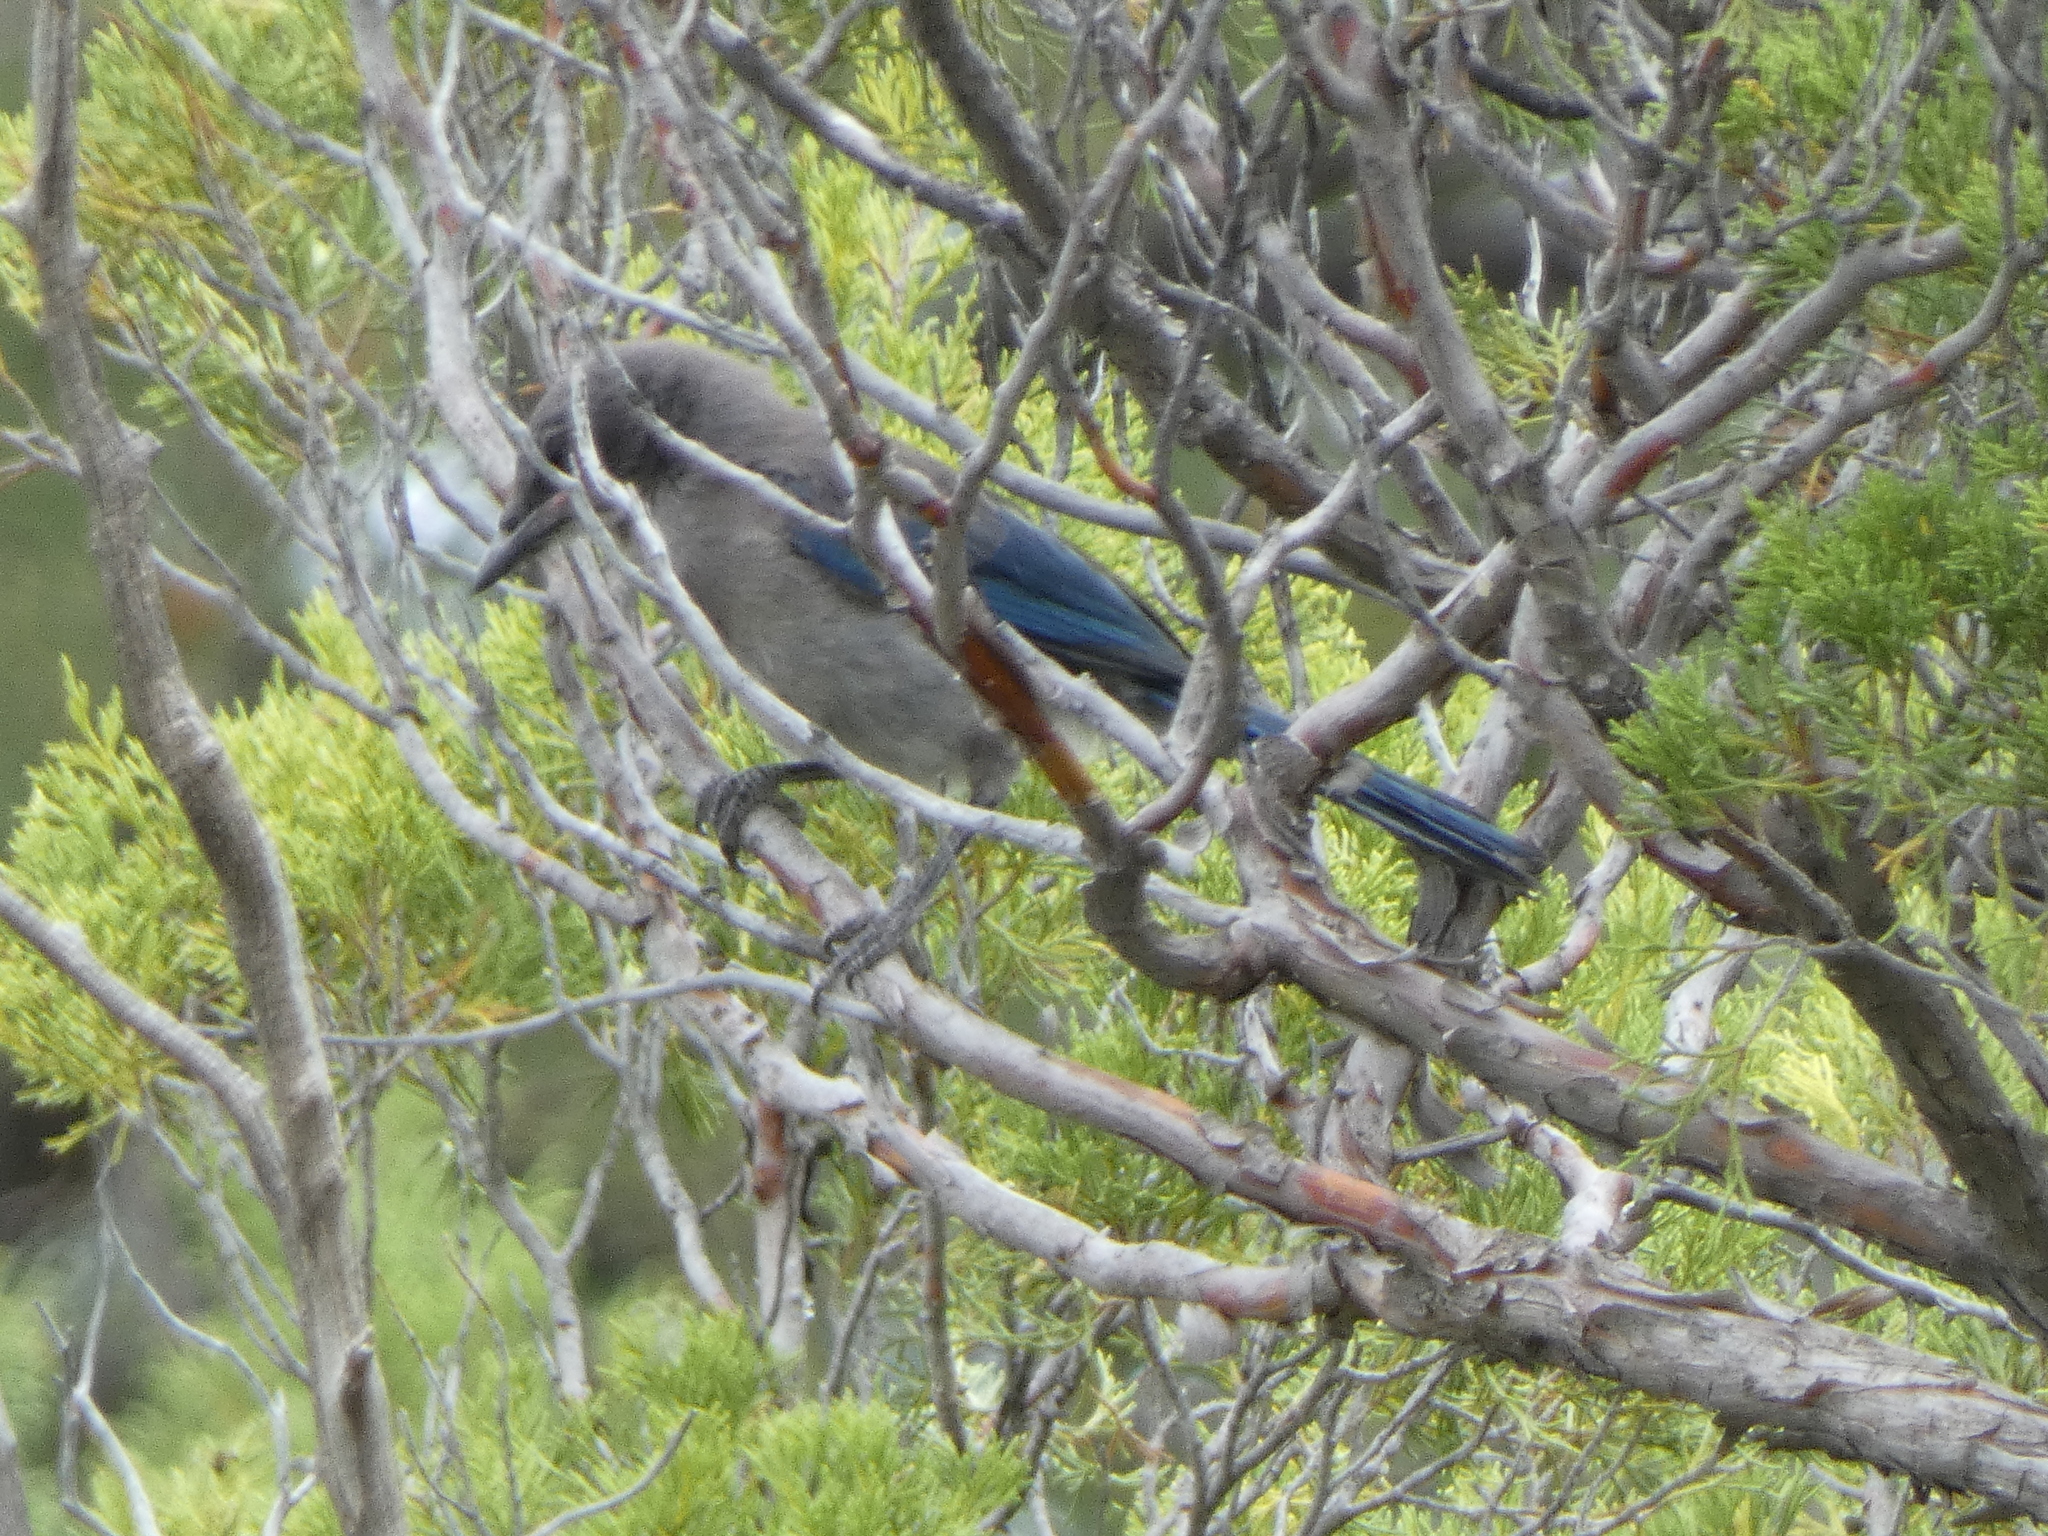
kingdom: Animalia
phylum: Chordata
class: Aves
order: Passeriformes
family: Corvidae
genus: Aphelocoma
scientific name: Aphelocoma woodhouseii
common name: Woodhouse's scrub-jay
